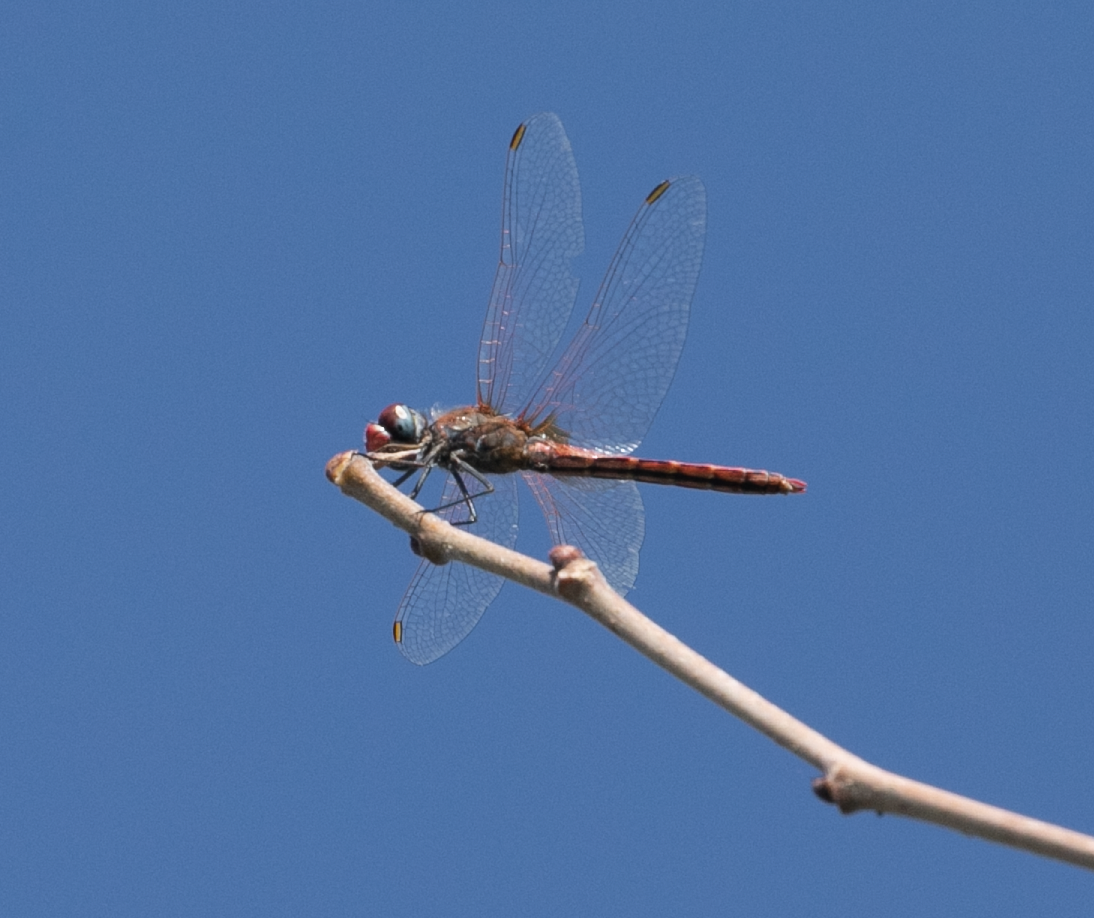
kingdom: Animalia
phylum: Arthropoda
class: Insecta
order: Odonata
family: Libellulidae
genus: Sympetrum
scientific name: Sympetrum fonscolombii
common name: Red-veined darter
